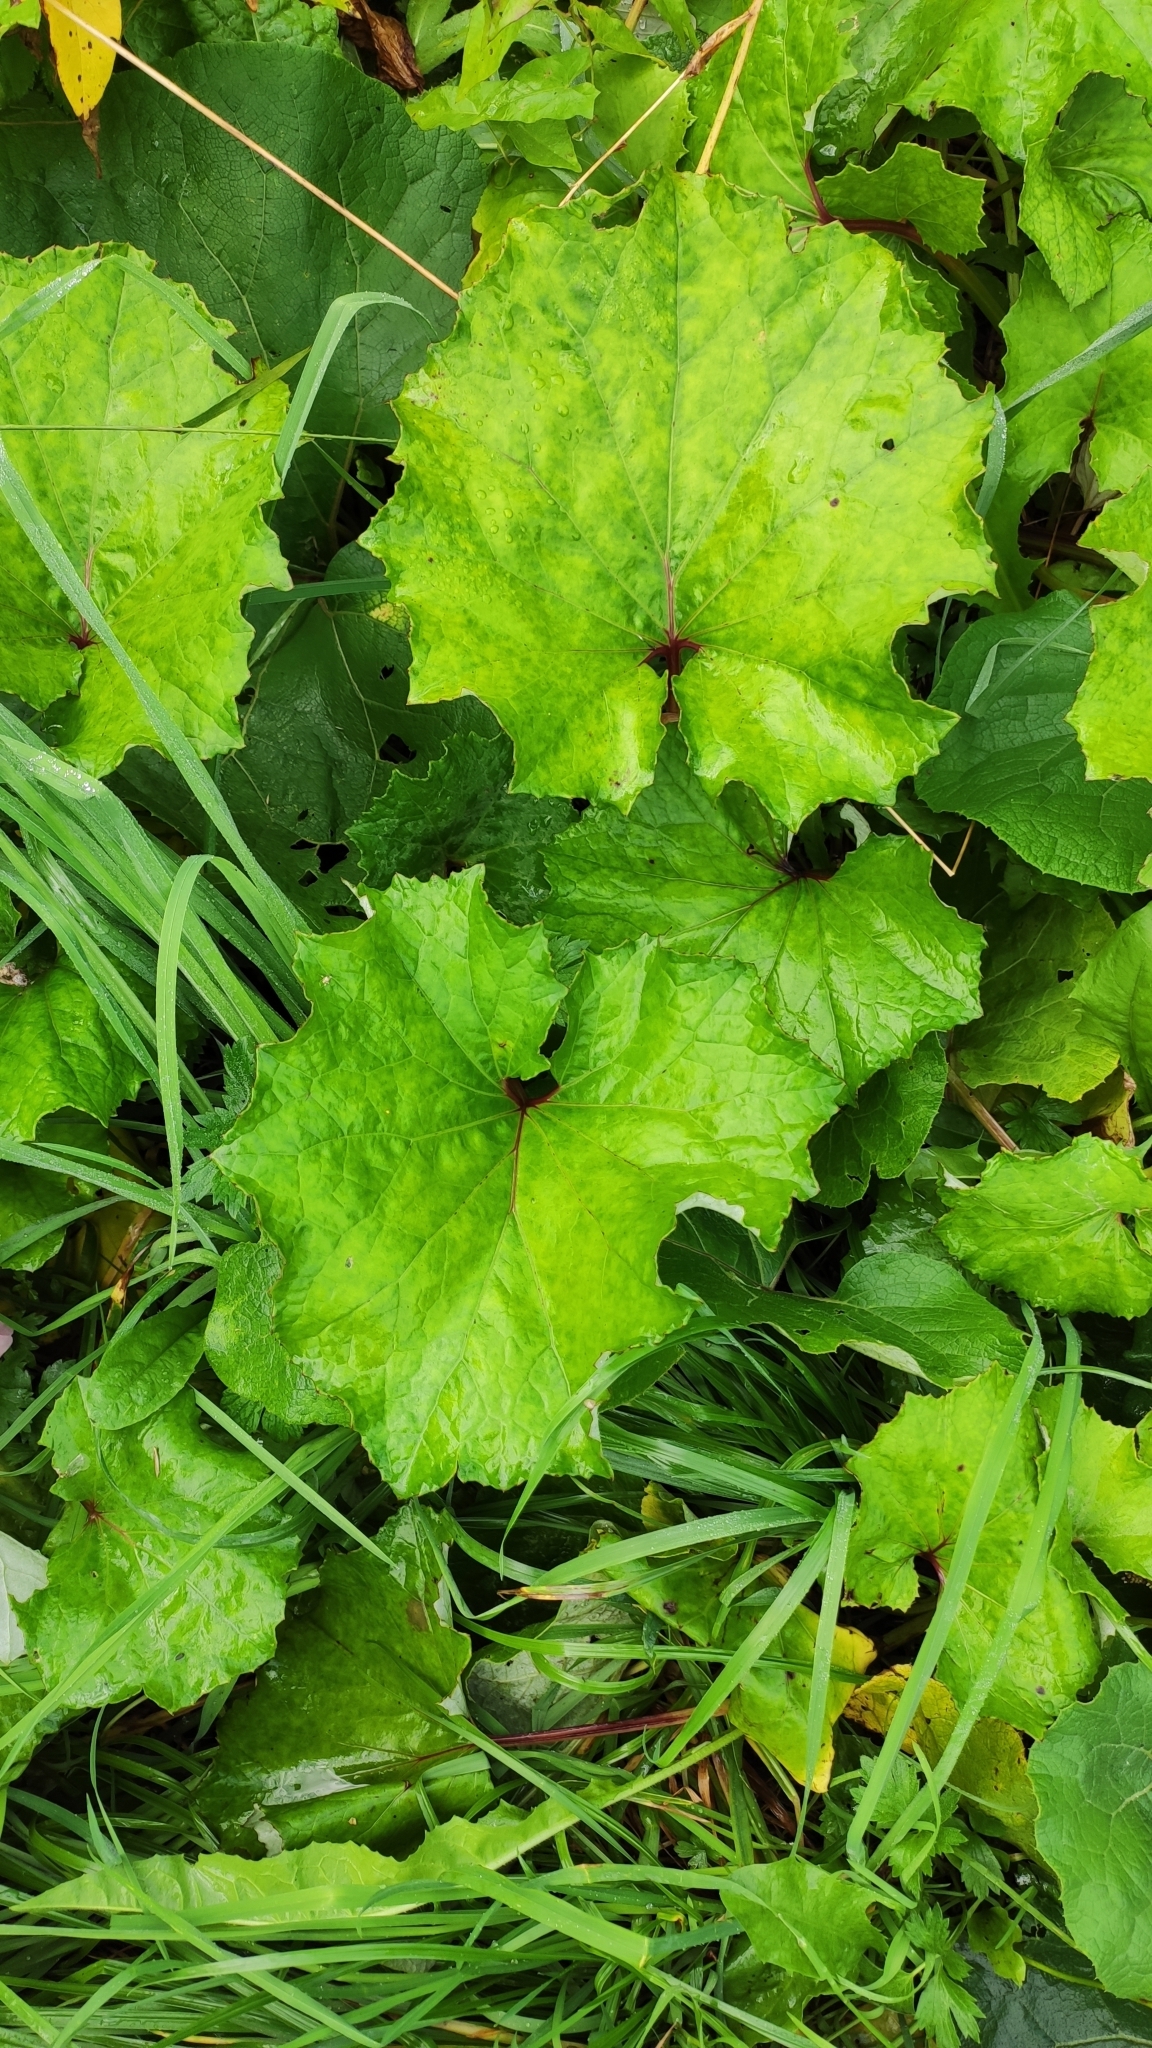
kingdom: Plantae
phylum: Tracheophyta
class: Magnoliopsida
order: Asterales
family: Asteraceae
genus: Tussilago
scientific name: Tussilago farfara
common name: Coltsfoot
